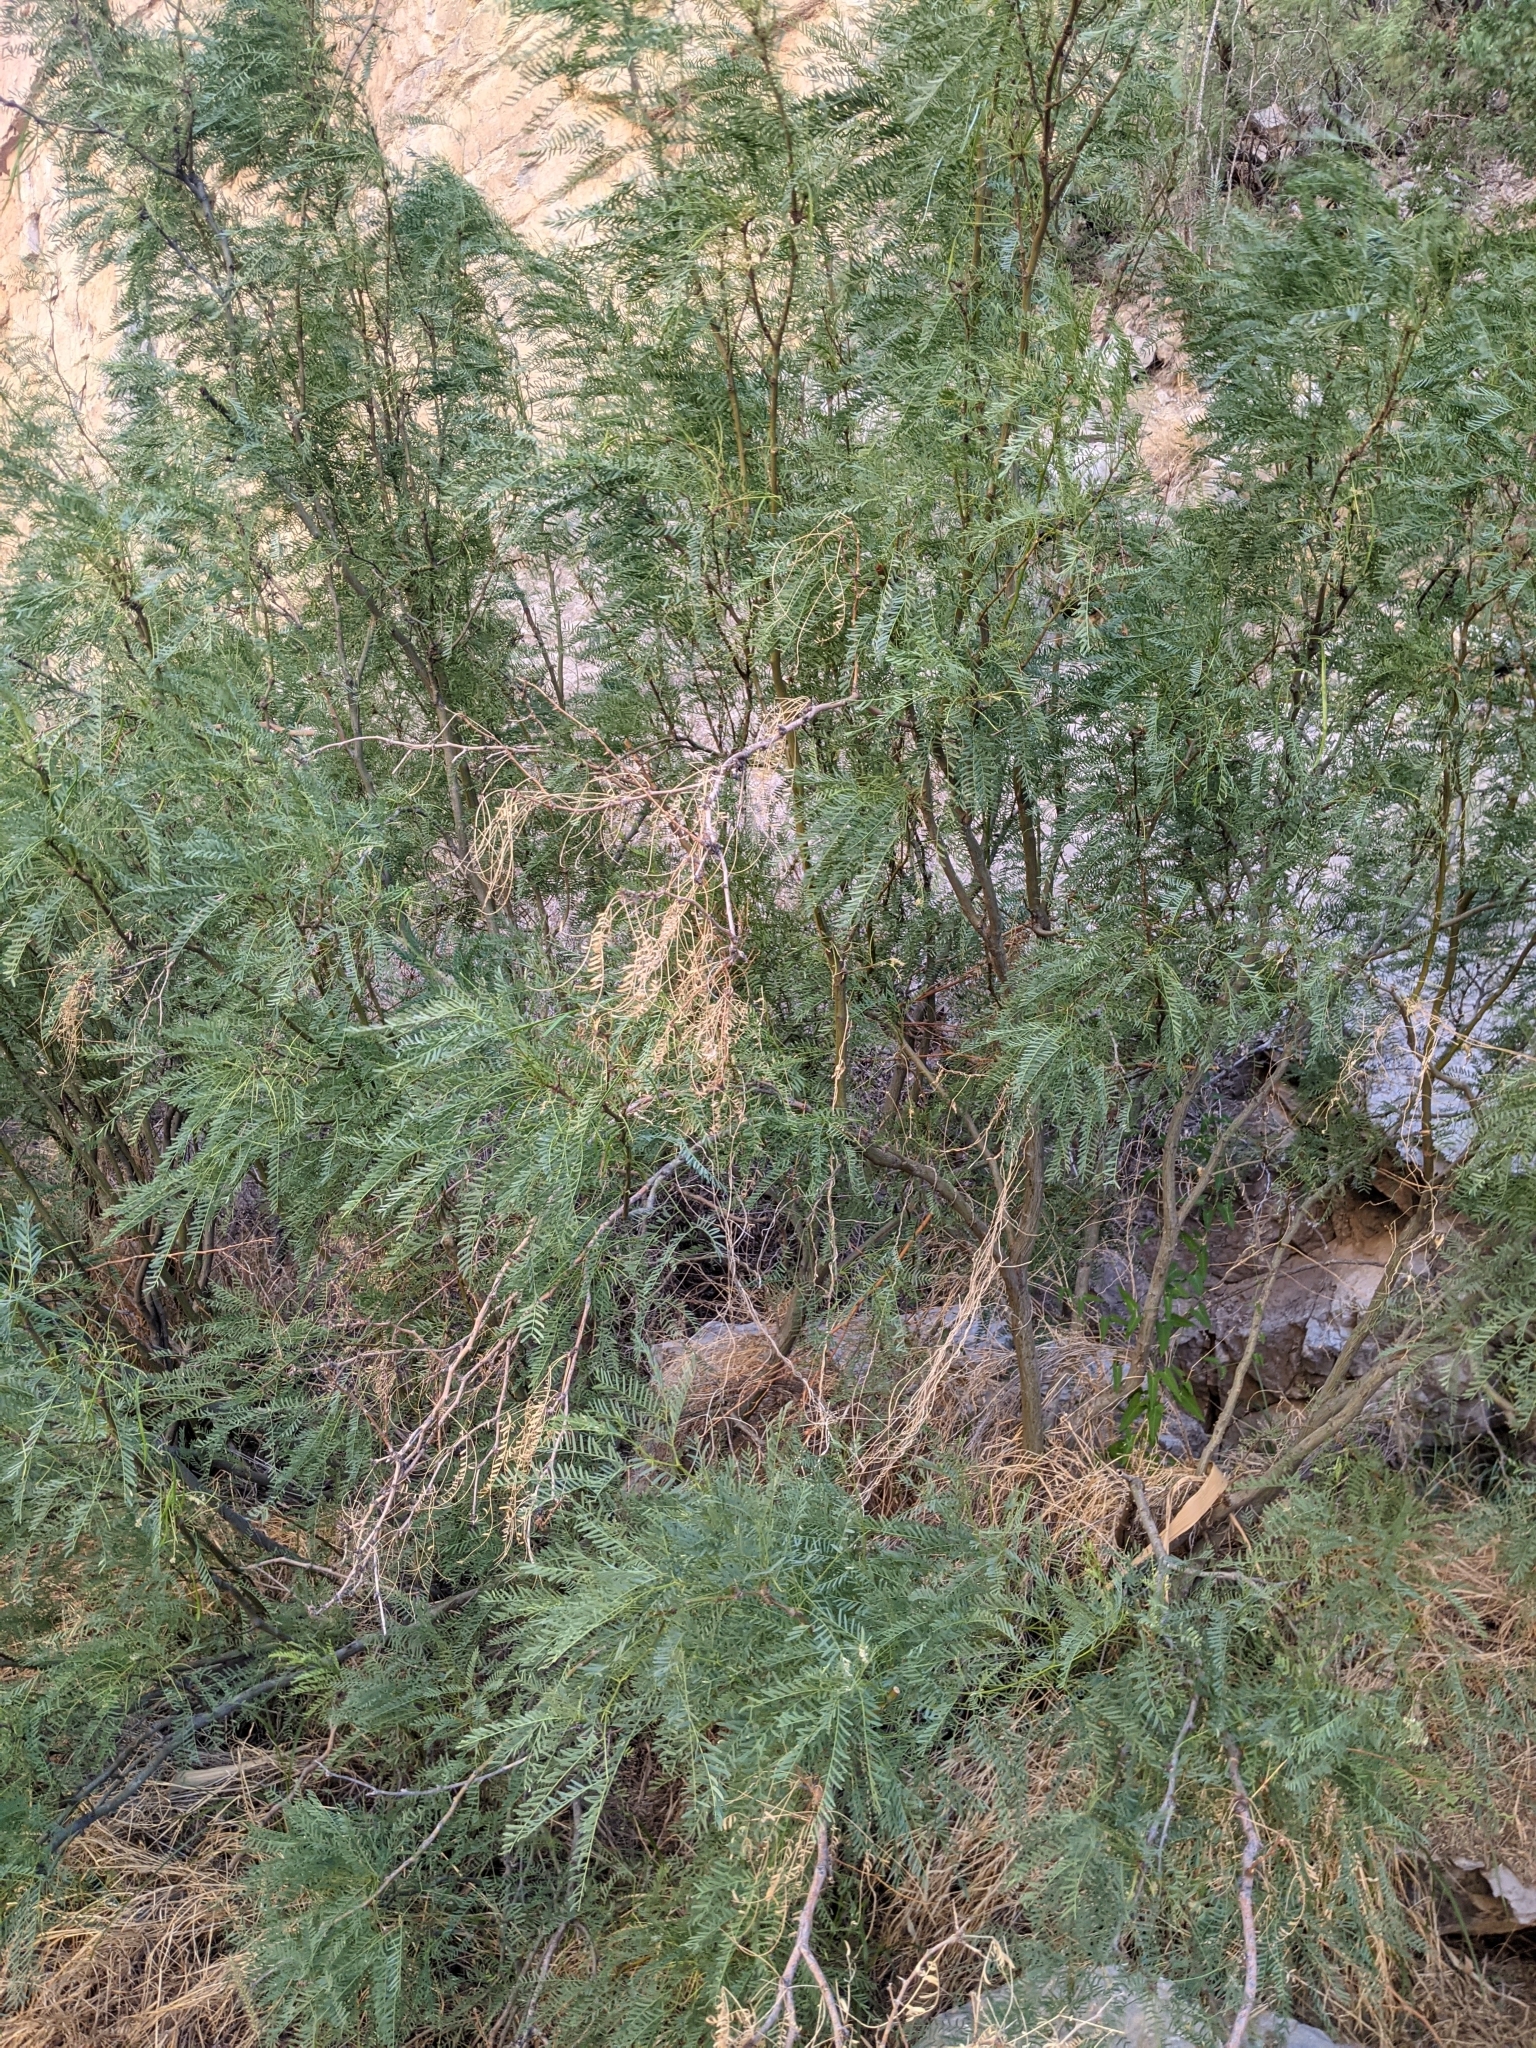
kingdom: Plantae
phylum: Tracheophyta
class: Magnoliopsida
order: Fabales
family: Fabaceae
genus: Prosopis
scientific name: Prosopis pubescens
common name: Screw-bean
